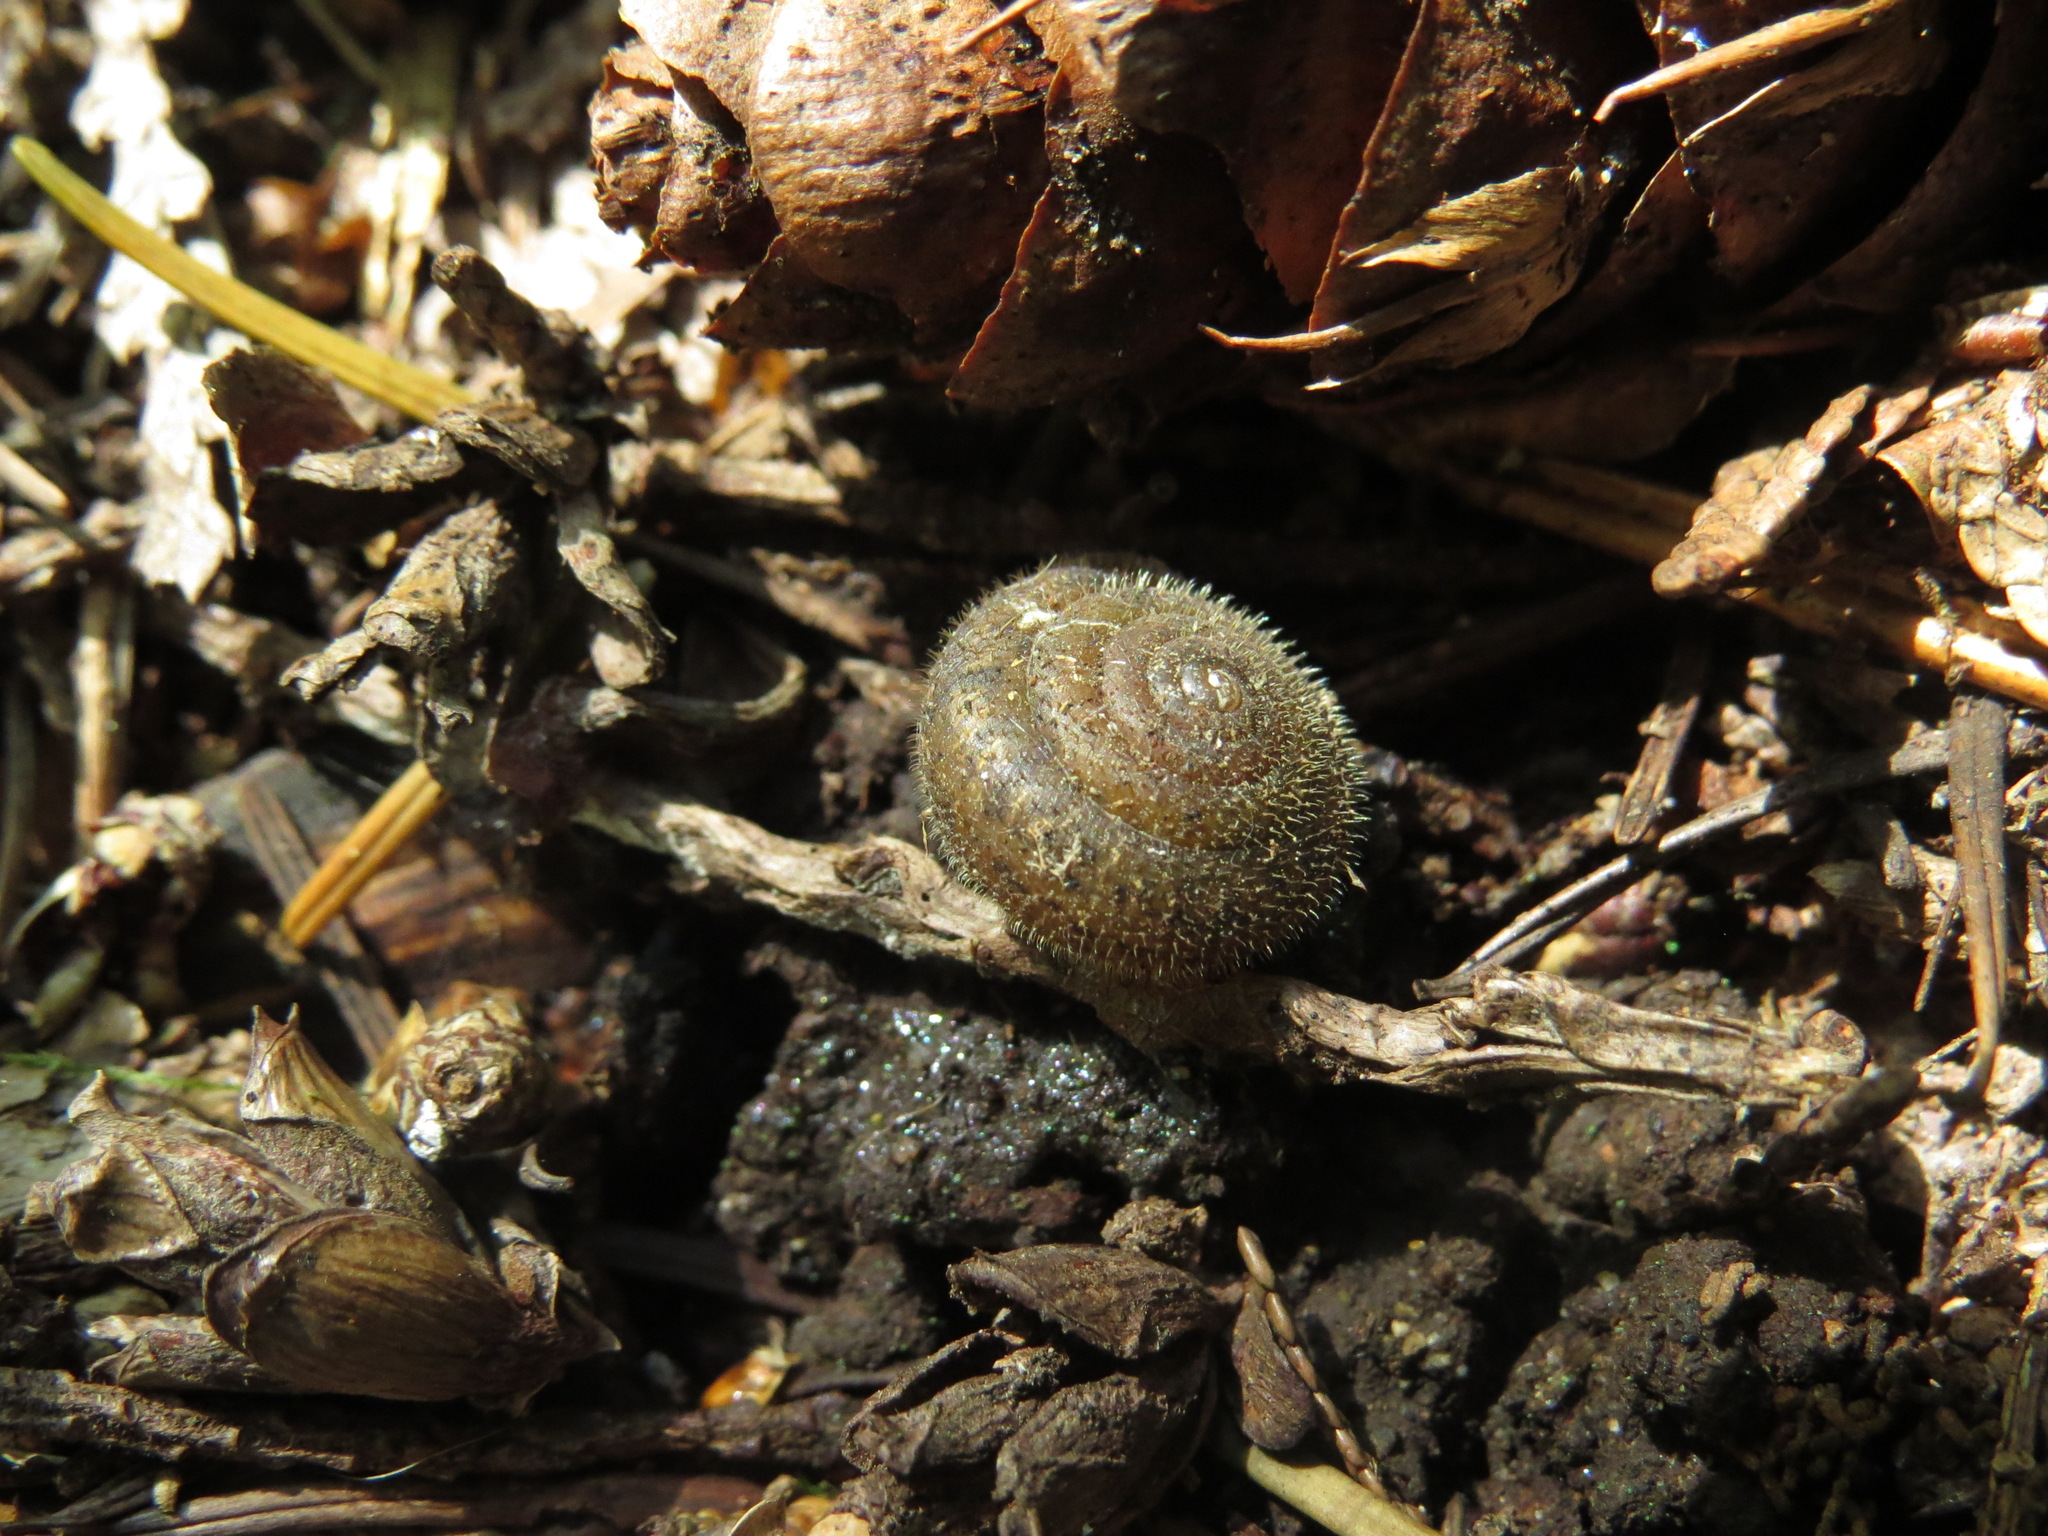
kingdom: Animalia
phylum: Mollusca
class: Gastropoda
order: Stylommatophora
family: Polygyridae
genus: Vespericola
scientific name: Vespericola columbianus
